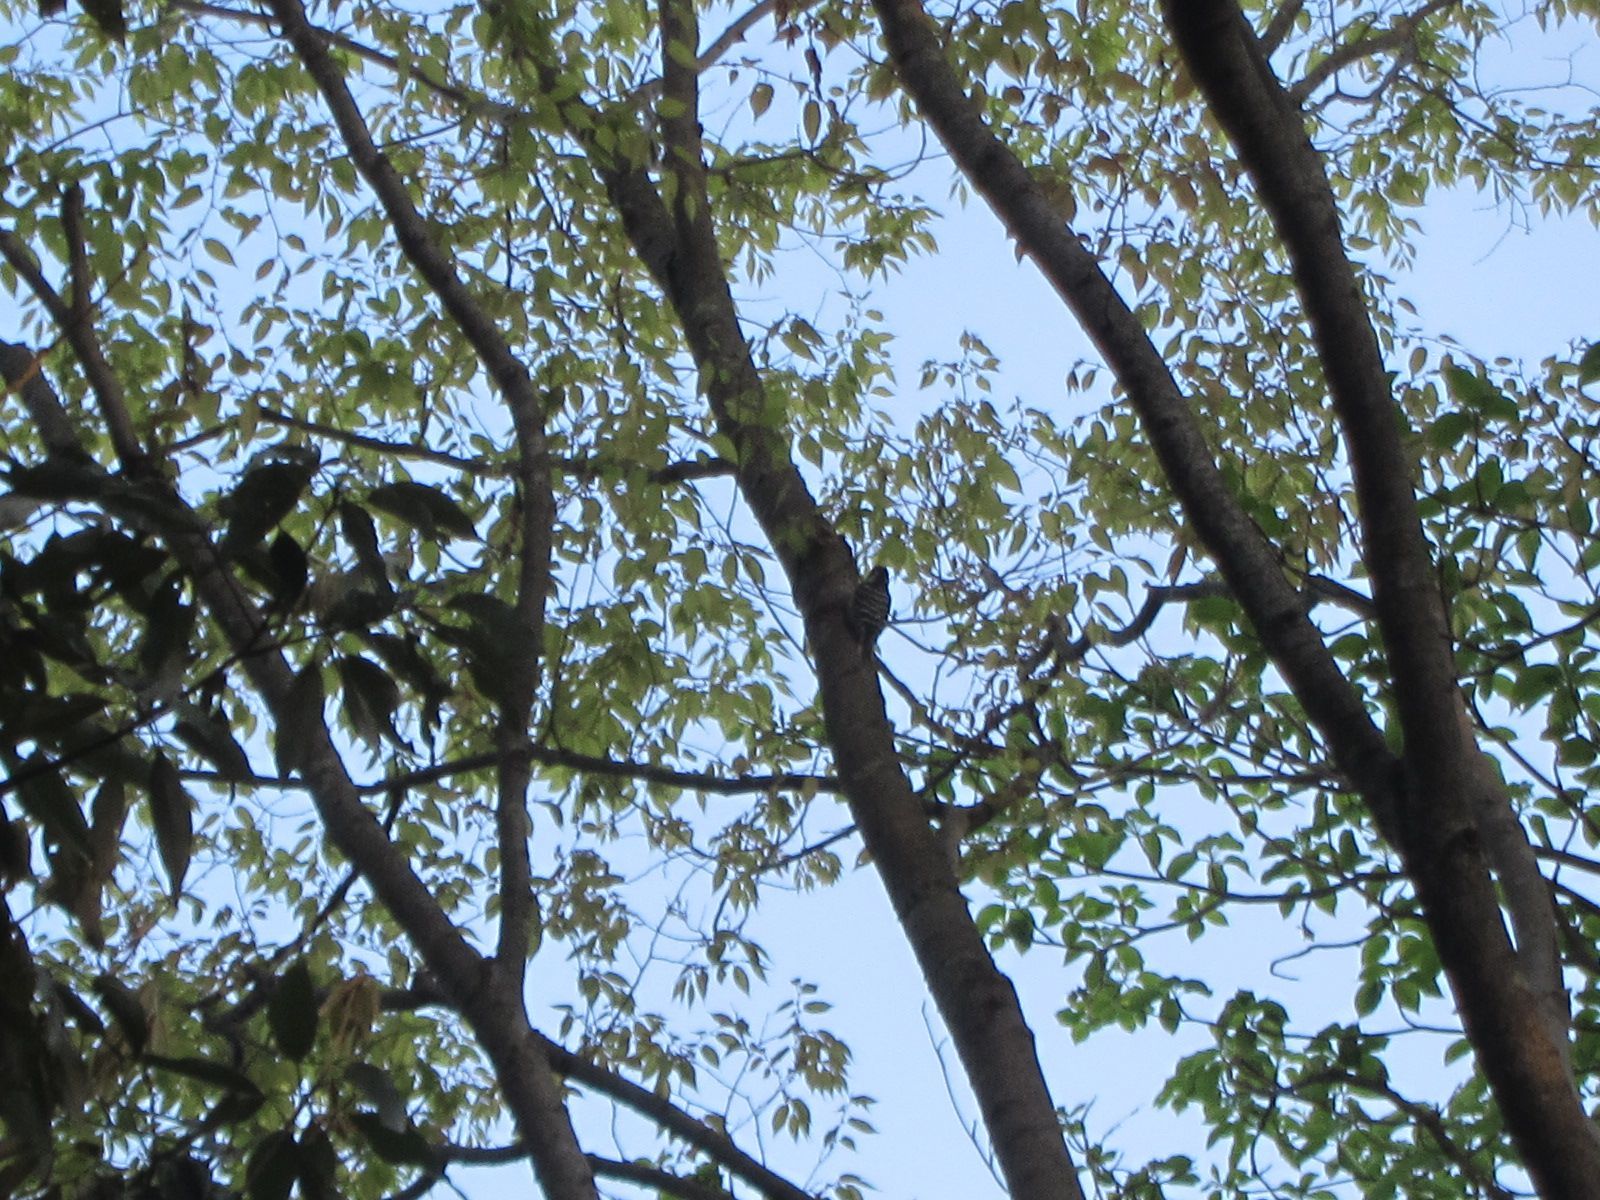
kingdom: Animalia
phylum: Chordata
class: Aves
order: Piciformes
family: Picidae
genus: Yungipicus
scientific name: Yungipicus kizuki
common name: Japanese pygmy woodpecker
